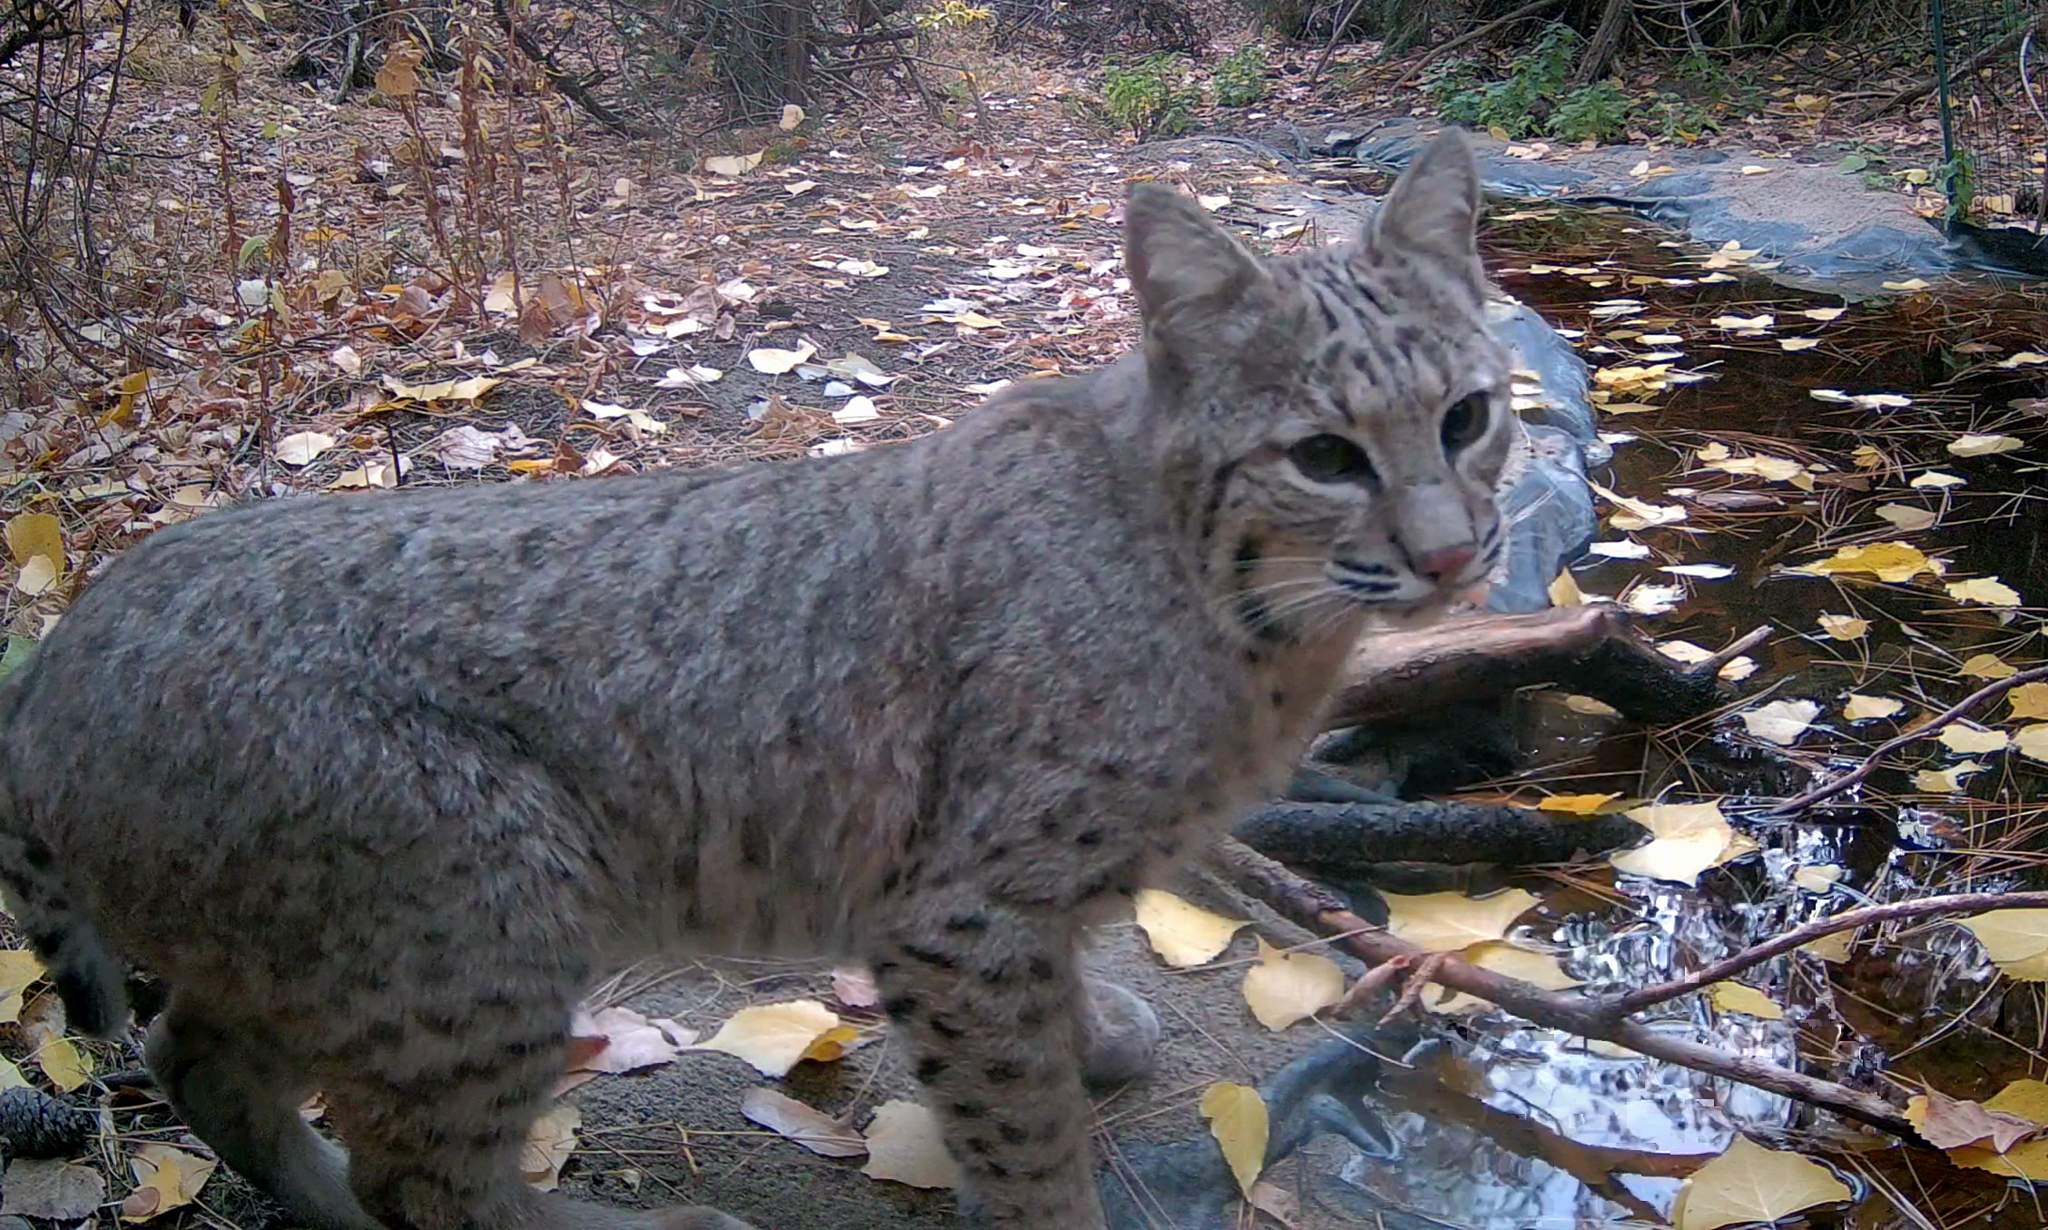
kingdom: Animalia
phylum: Chordata
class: Mammalia
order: Carnivora
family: Felidae
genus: Lynx
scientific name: Lynx rufus
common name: Bobcat
